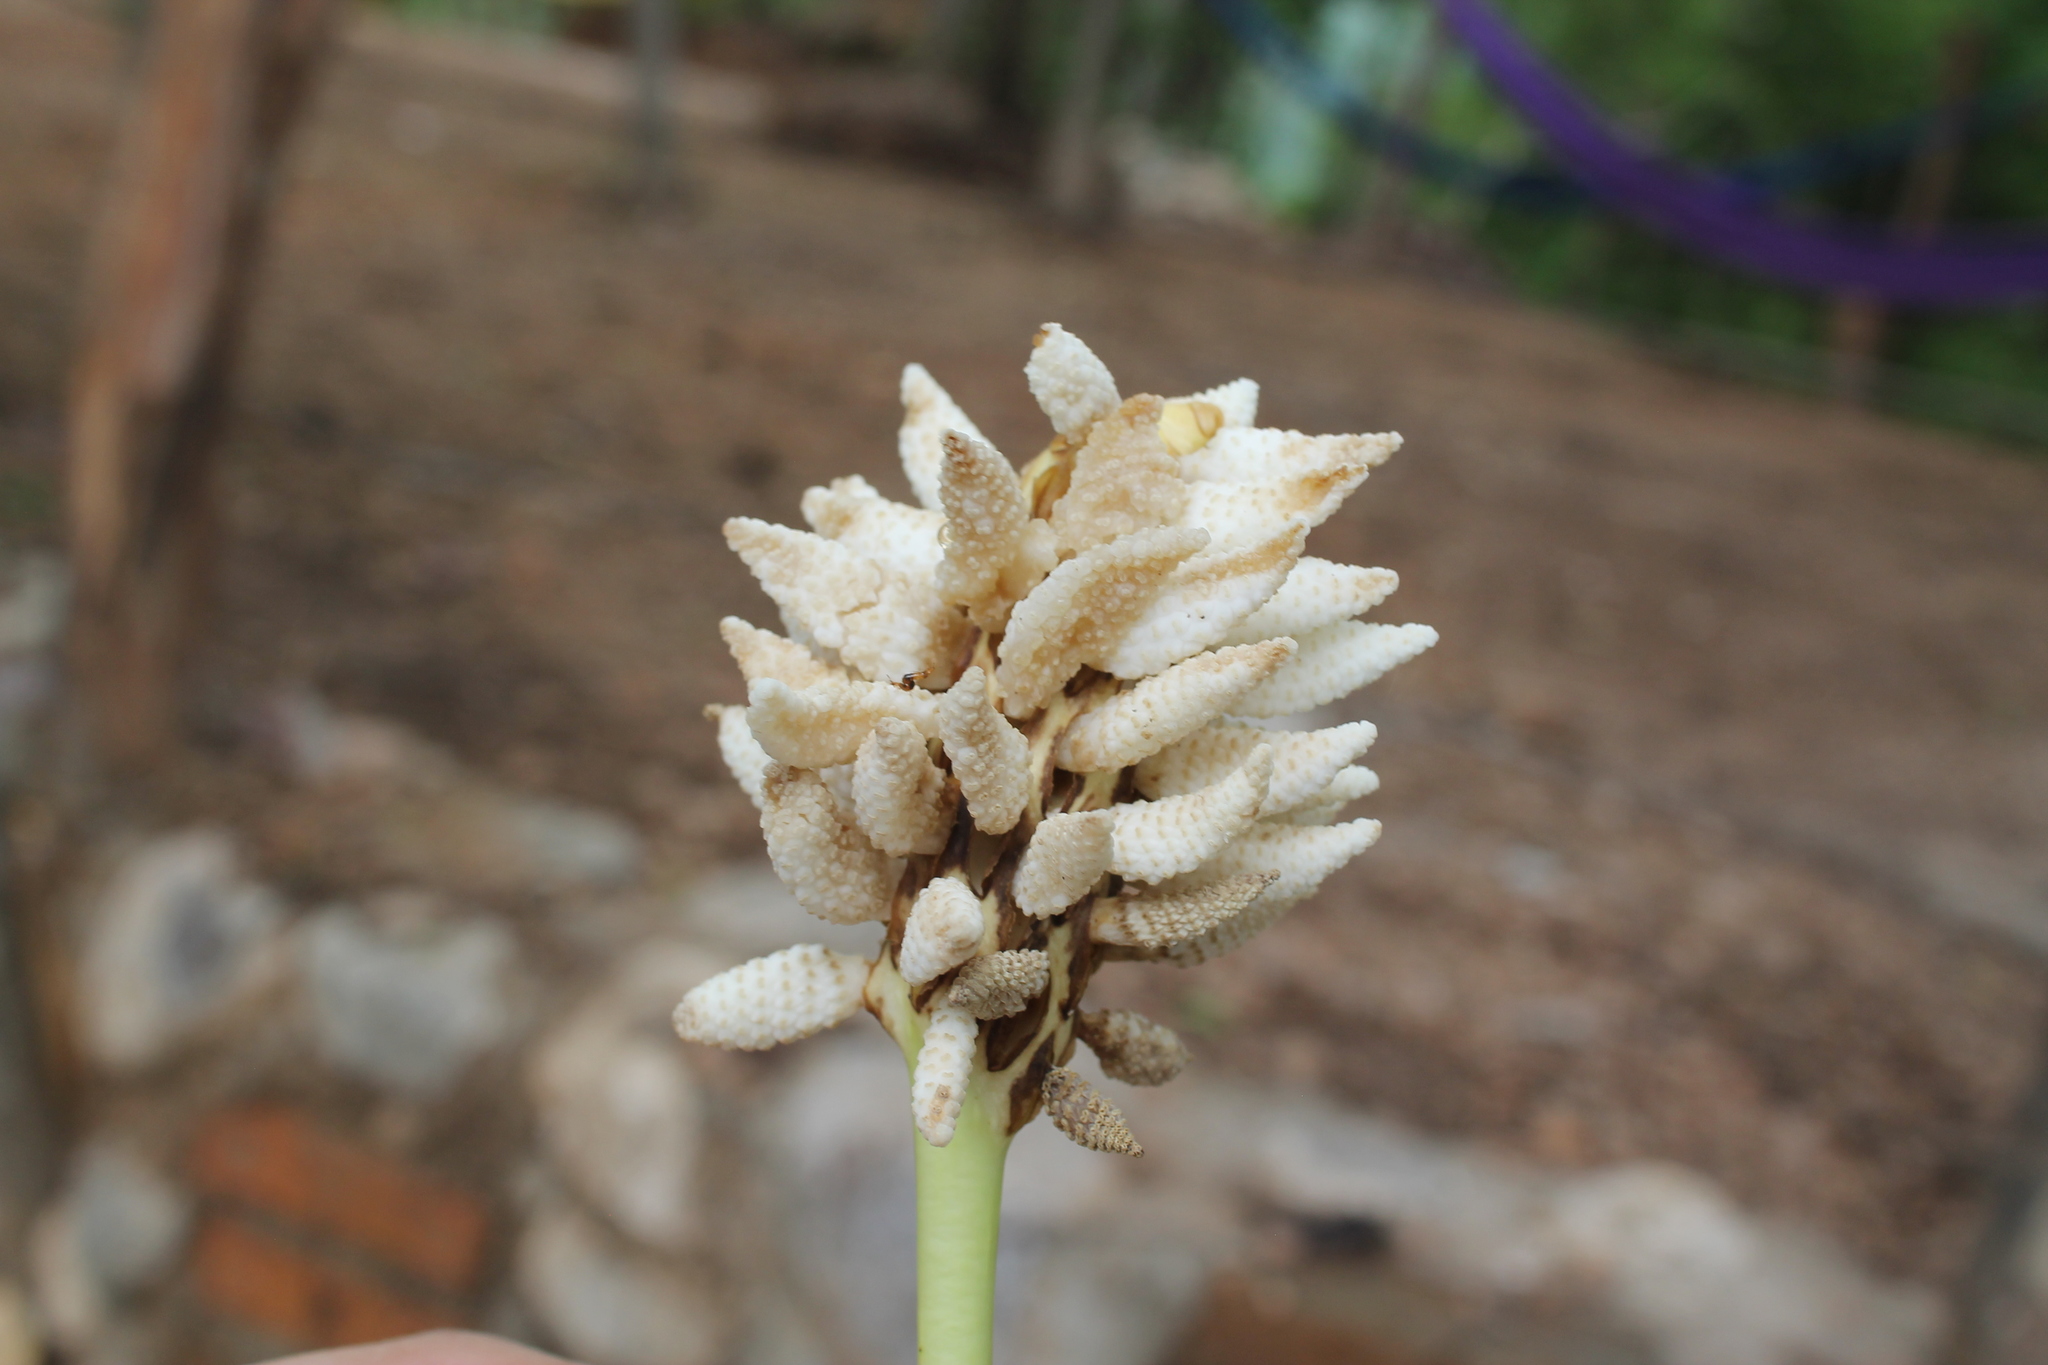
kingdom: Plantae
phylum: Tracheophyta
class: Magnoliopsida
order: Malpighiales
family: Euphorbiaceae
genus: Hura
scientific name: Hura polyandra
